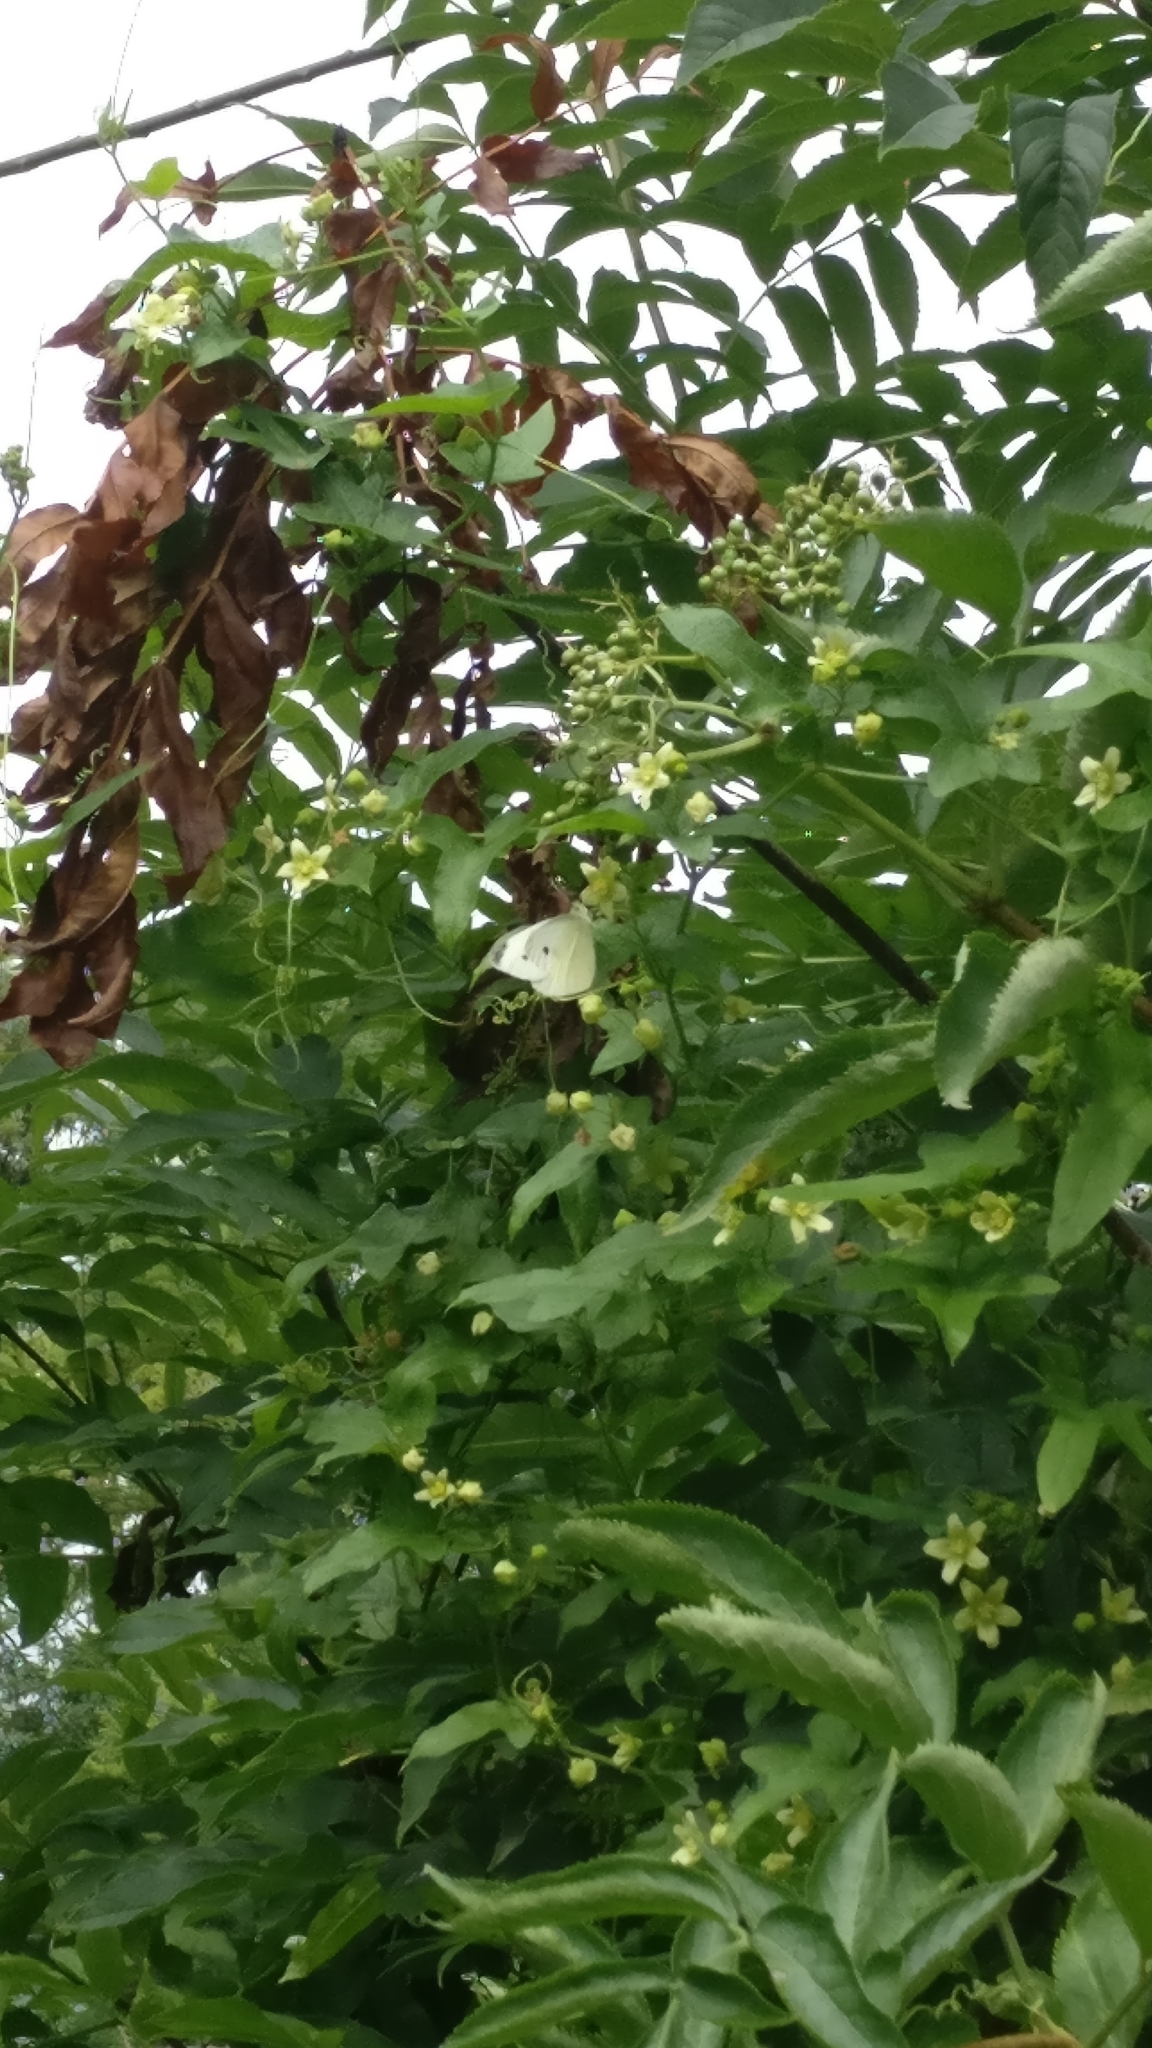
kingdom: Animalia
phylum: Arthropoda
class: Insecta
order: Lepidoptera
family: Pieridae
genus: Pieris
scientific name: Pieris rapae
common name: Small white
